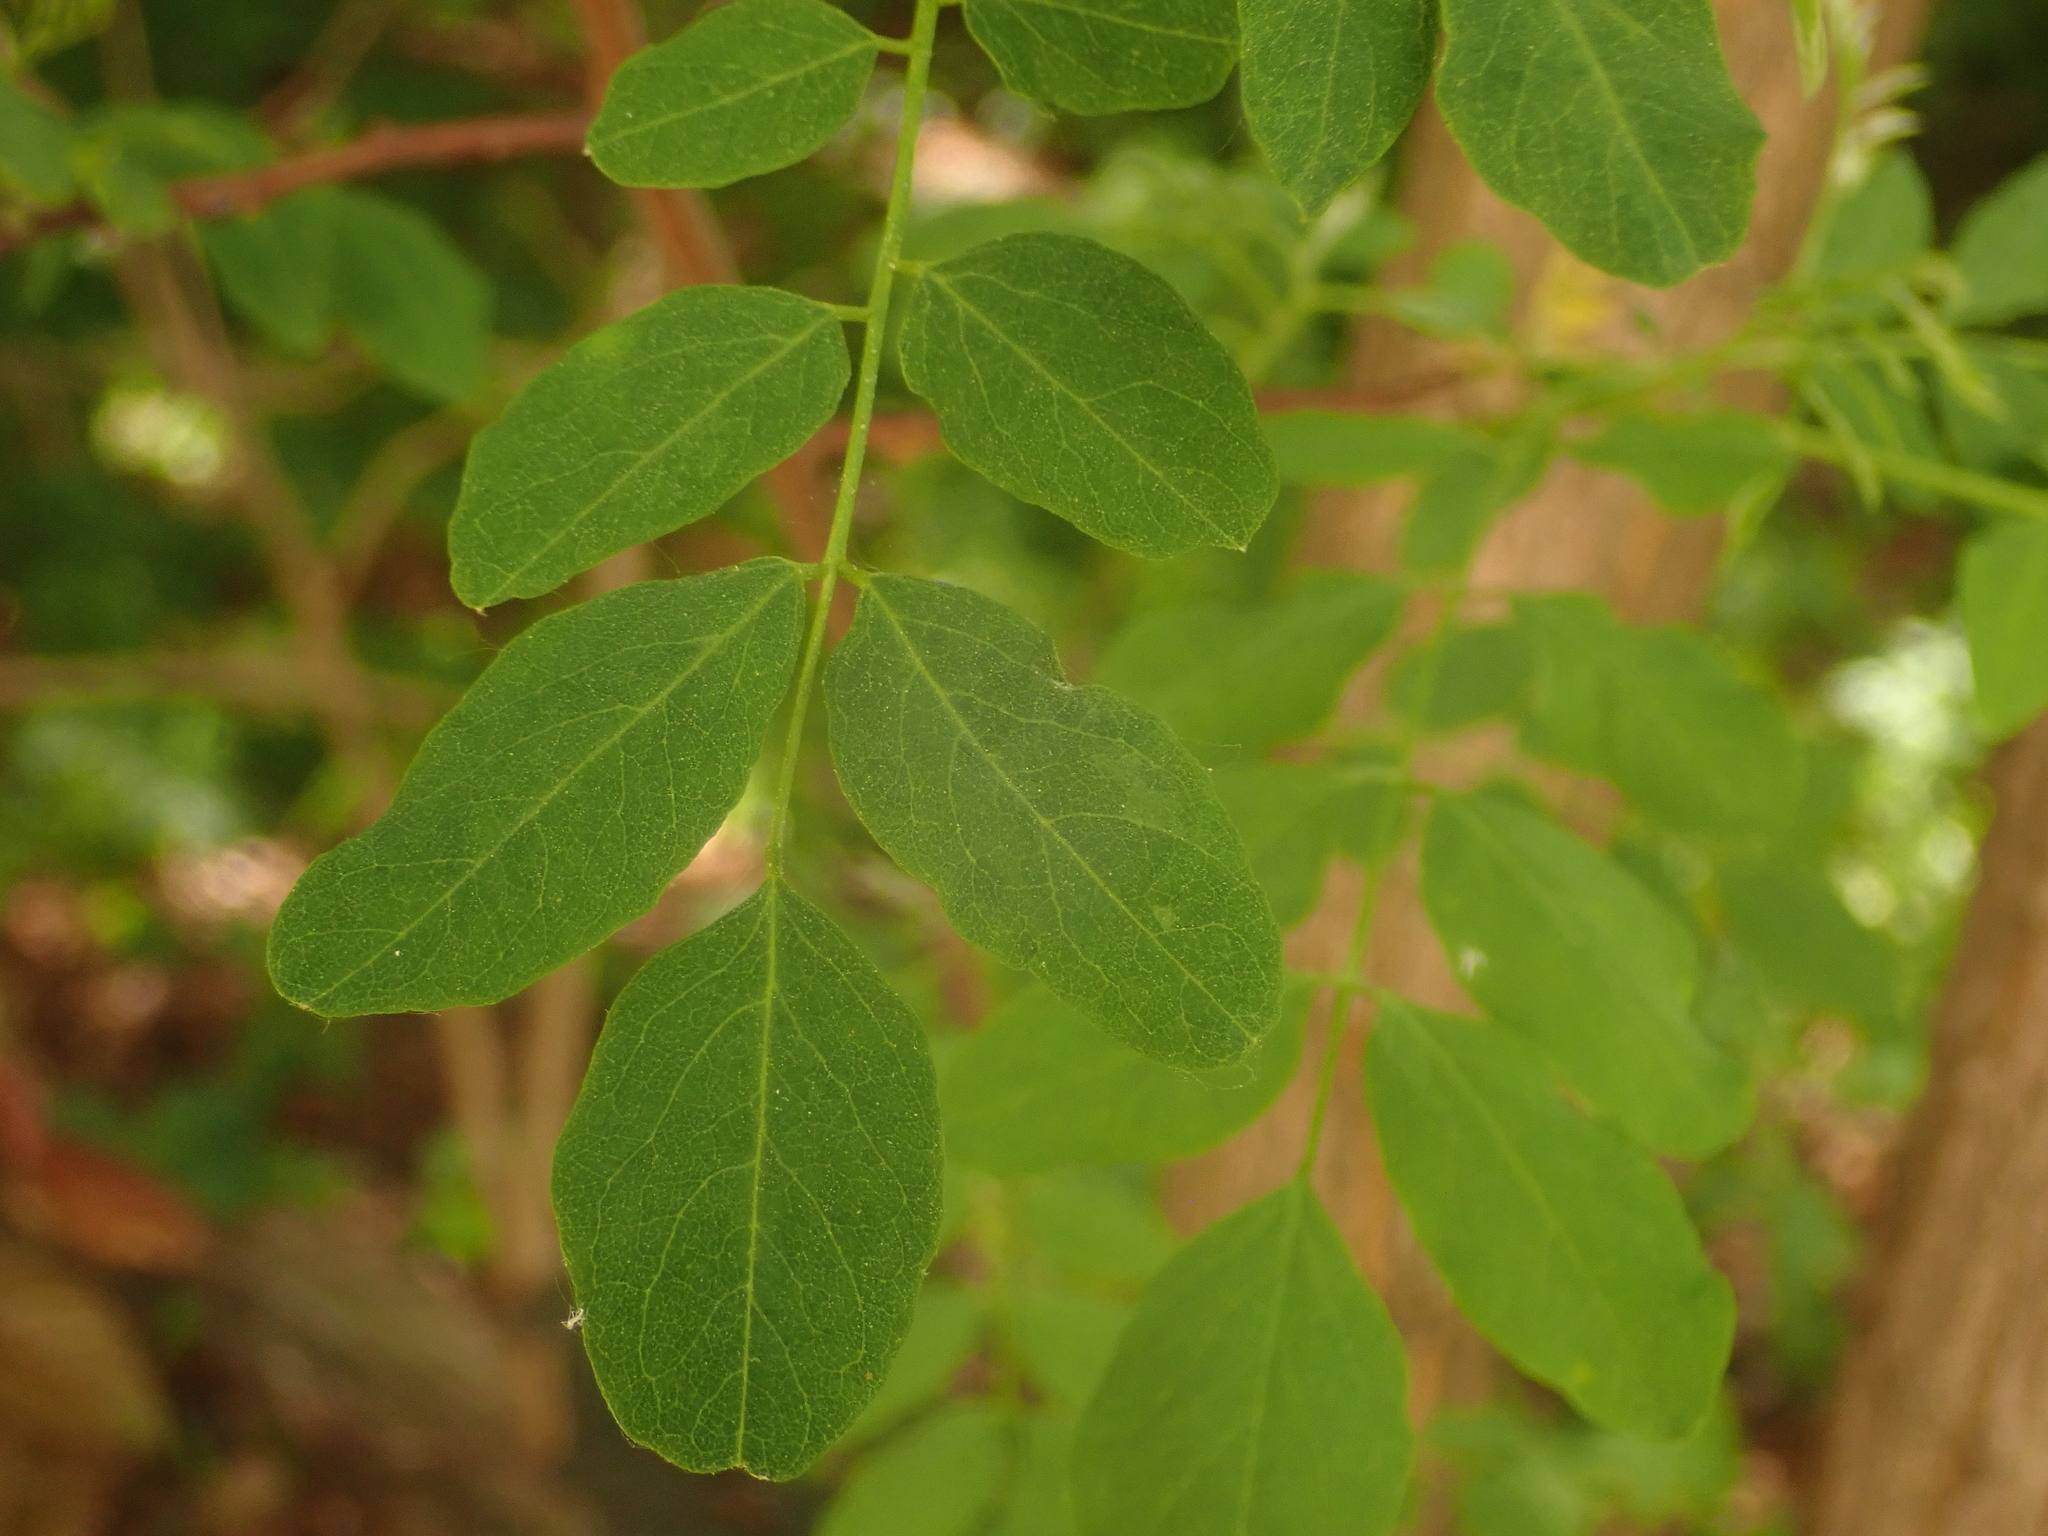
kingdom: Plantae
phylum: Tracheophyta
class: Magnoliopsida
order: Fabales
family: Fabaceae
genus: Robinia
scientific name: Robinia pseudoacacia
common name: Black locust
